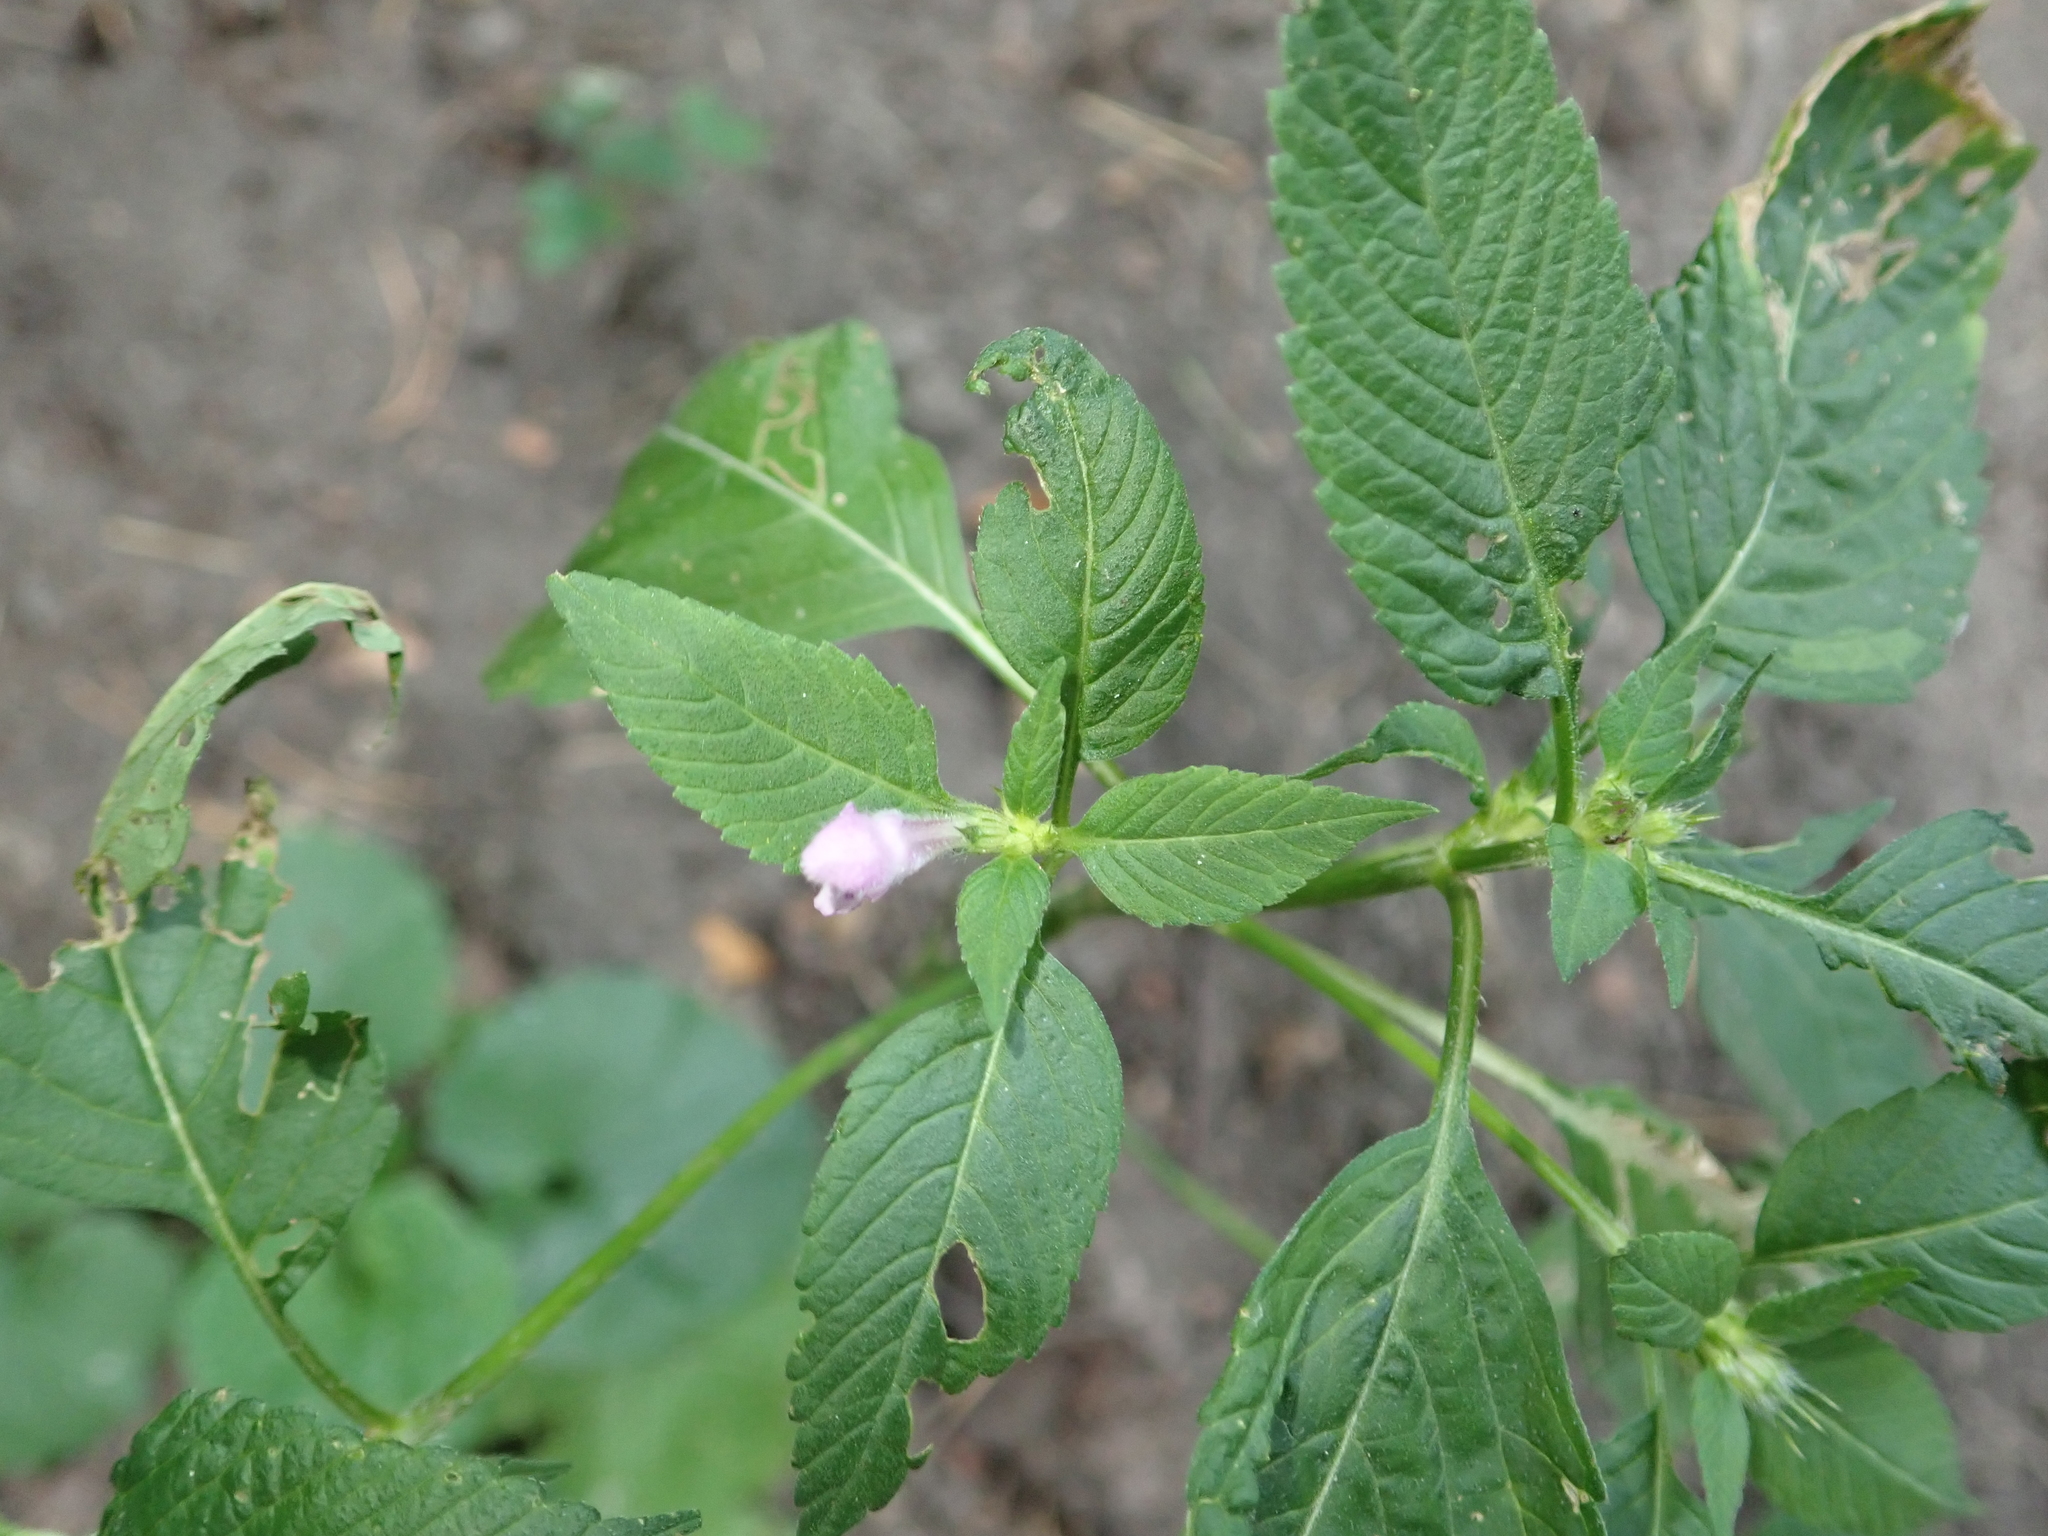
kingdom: Plantae
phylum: Tracheophyta
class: Magnoliopsida
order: Lamiales
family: Lamiaceae
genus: Galeopsis
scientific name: Galeopsis tetrahit
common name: Common hemp-nettle
